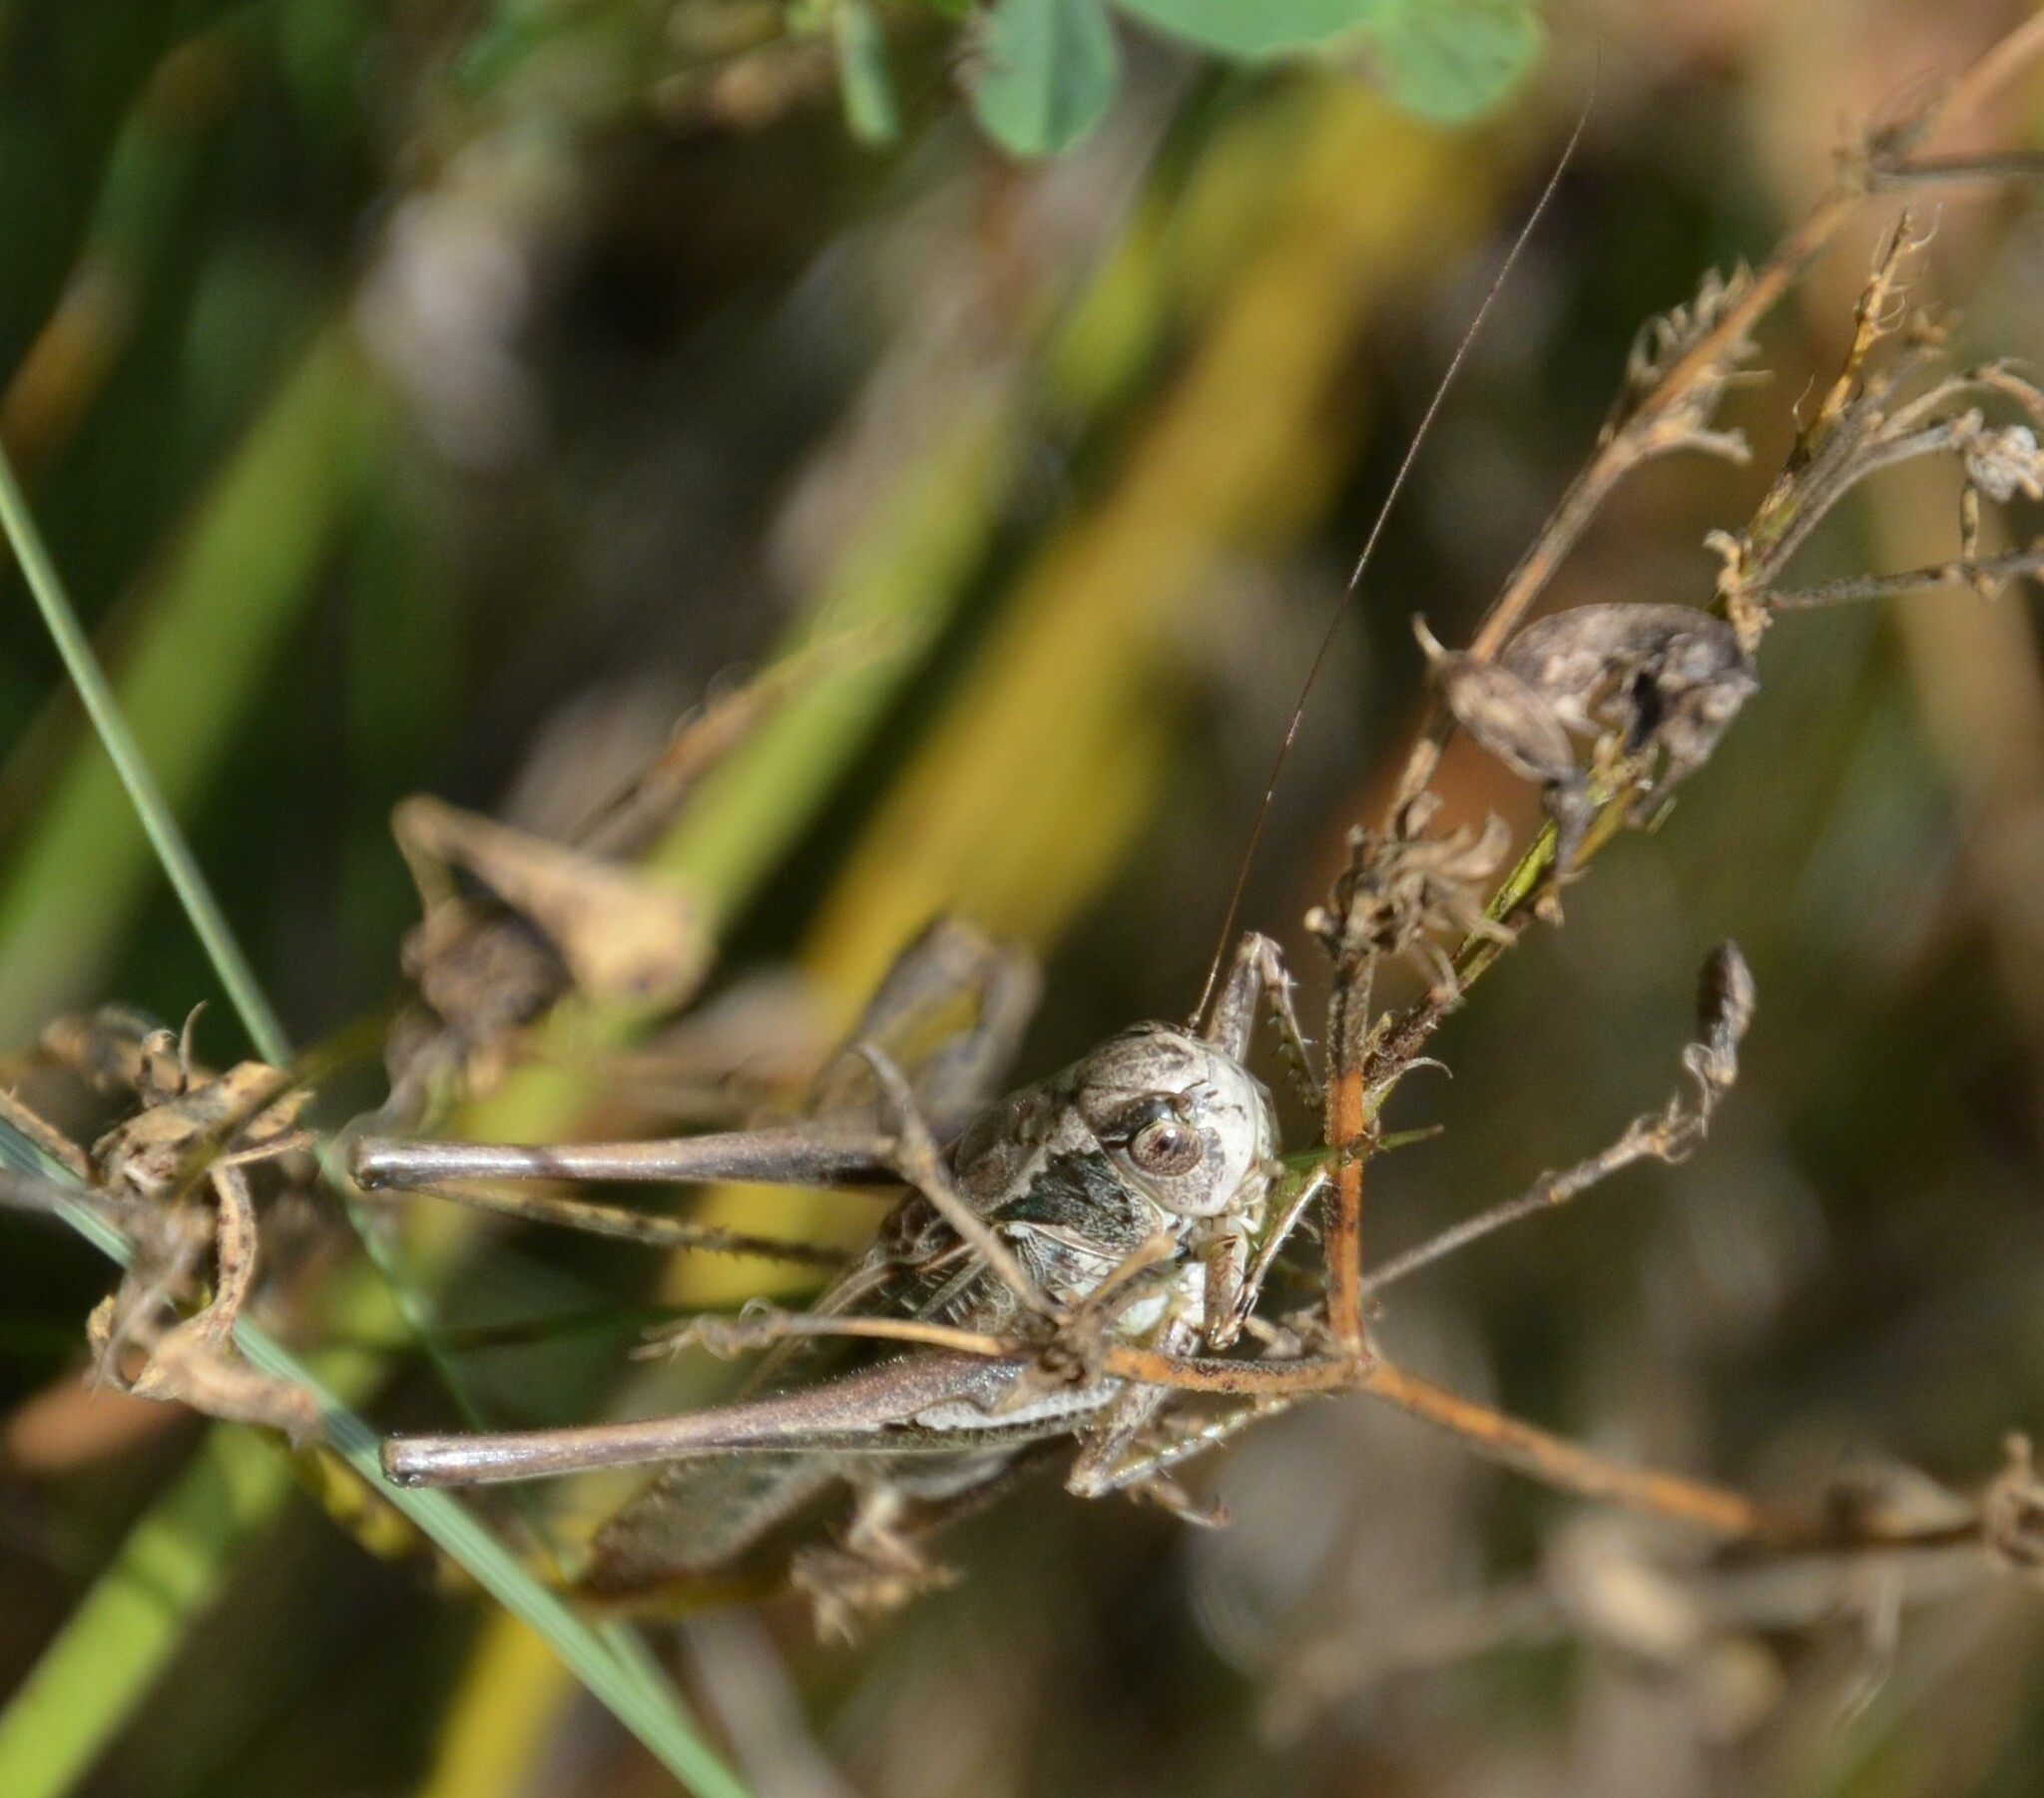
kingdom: Animalia
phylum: Arthropoda
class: Insecta
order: Orthoptera
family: Tettigoniidae
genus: Platycleis
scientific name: Platycleis grisea
